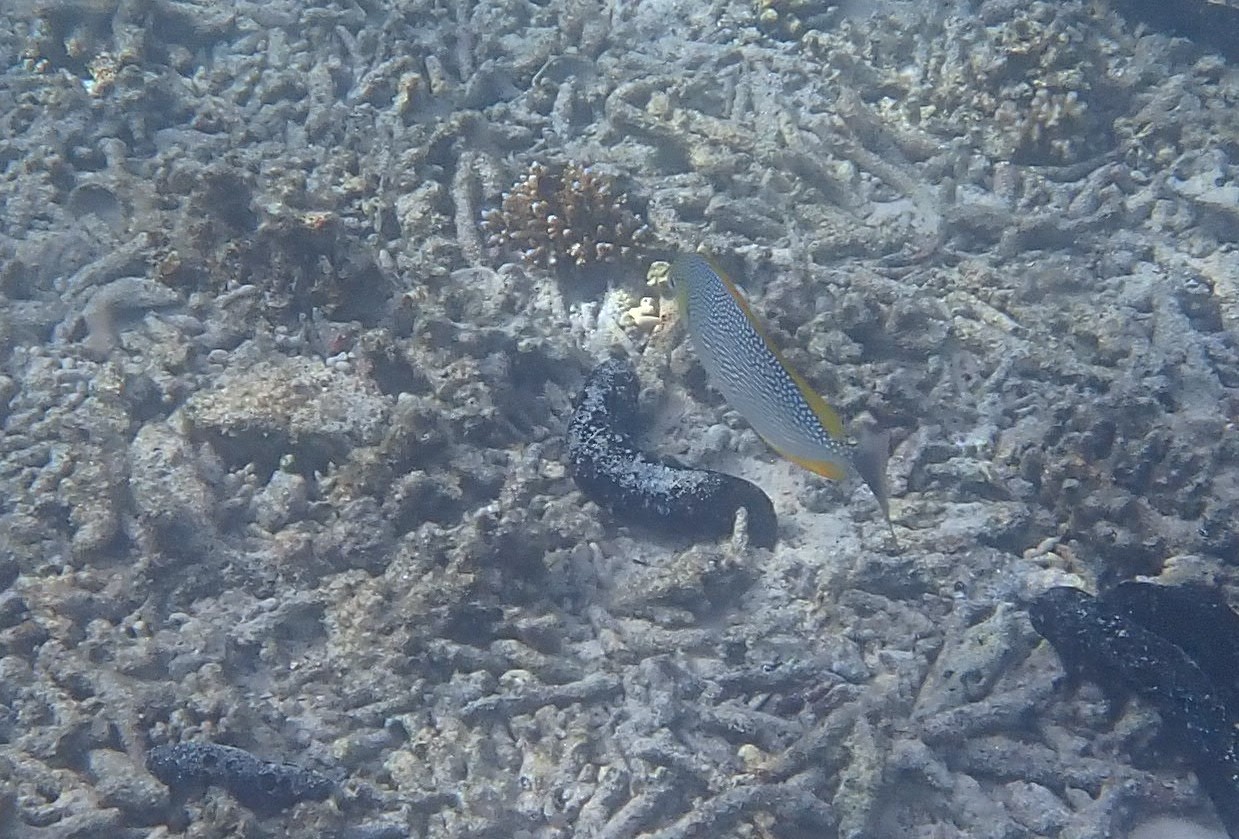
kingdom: Animalia
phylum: Chordata
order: Perciformes
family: Siganidae
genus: Siganus
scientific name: Siganus javus
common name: Java rabbitfish
